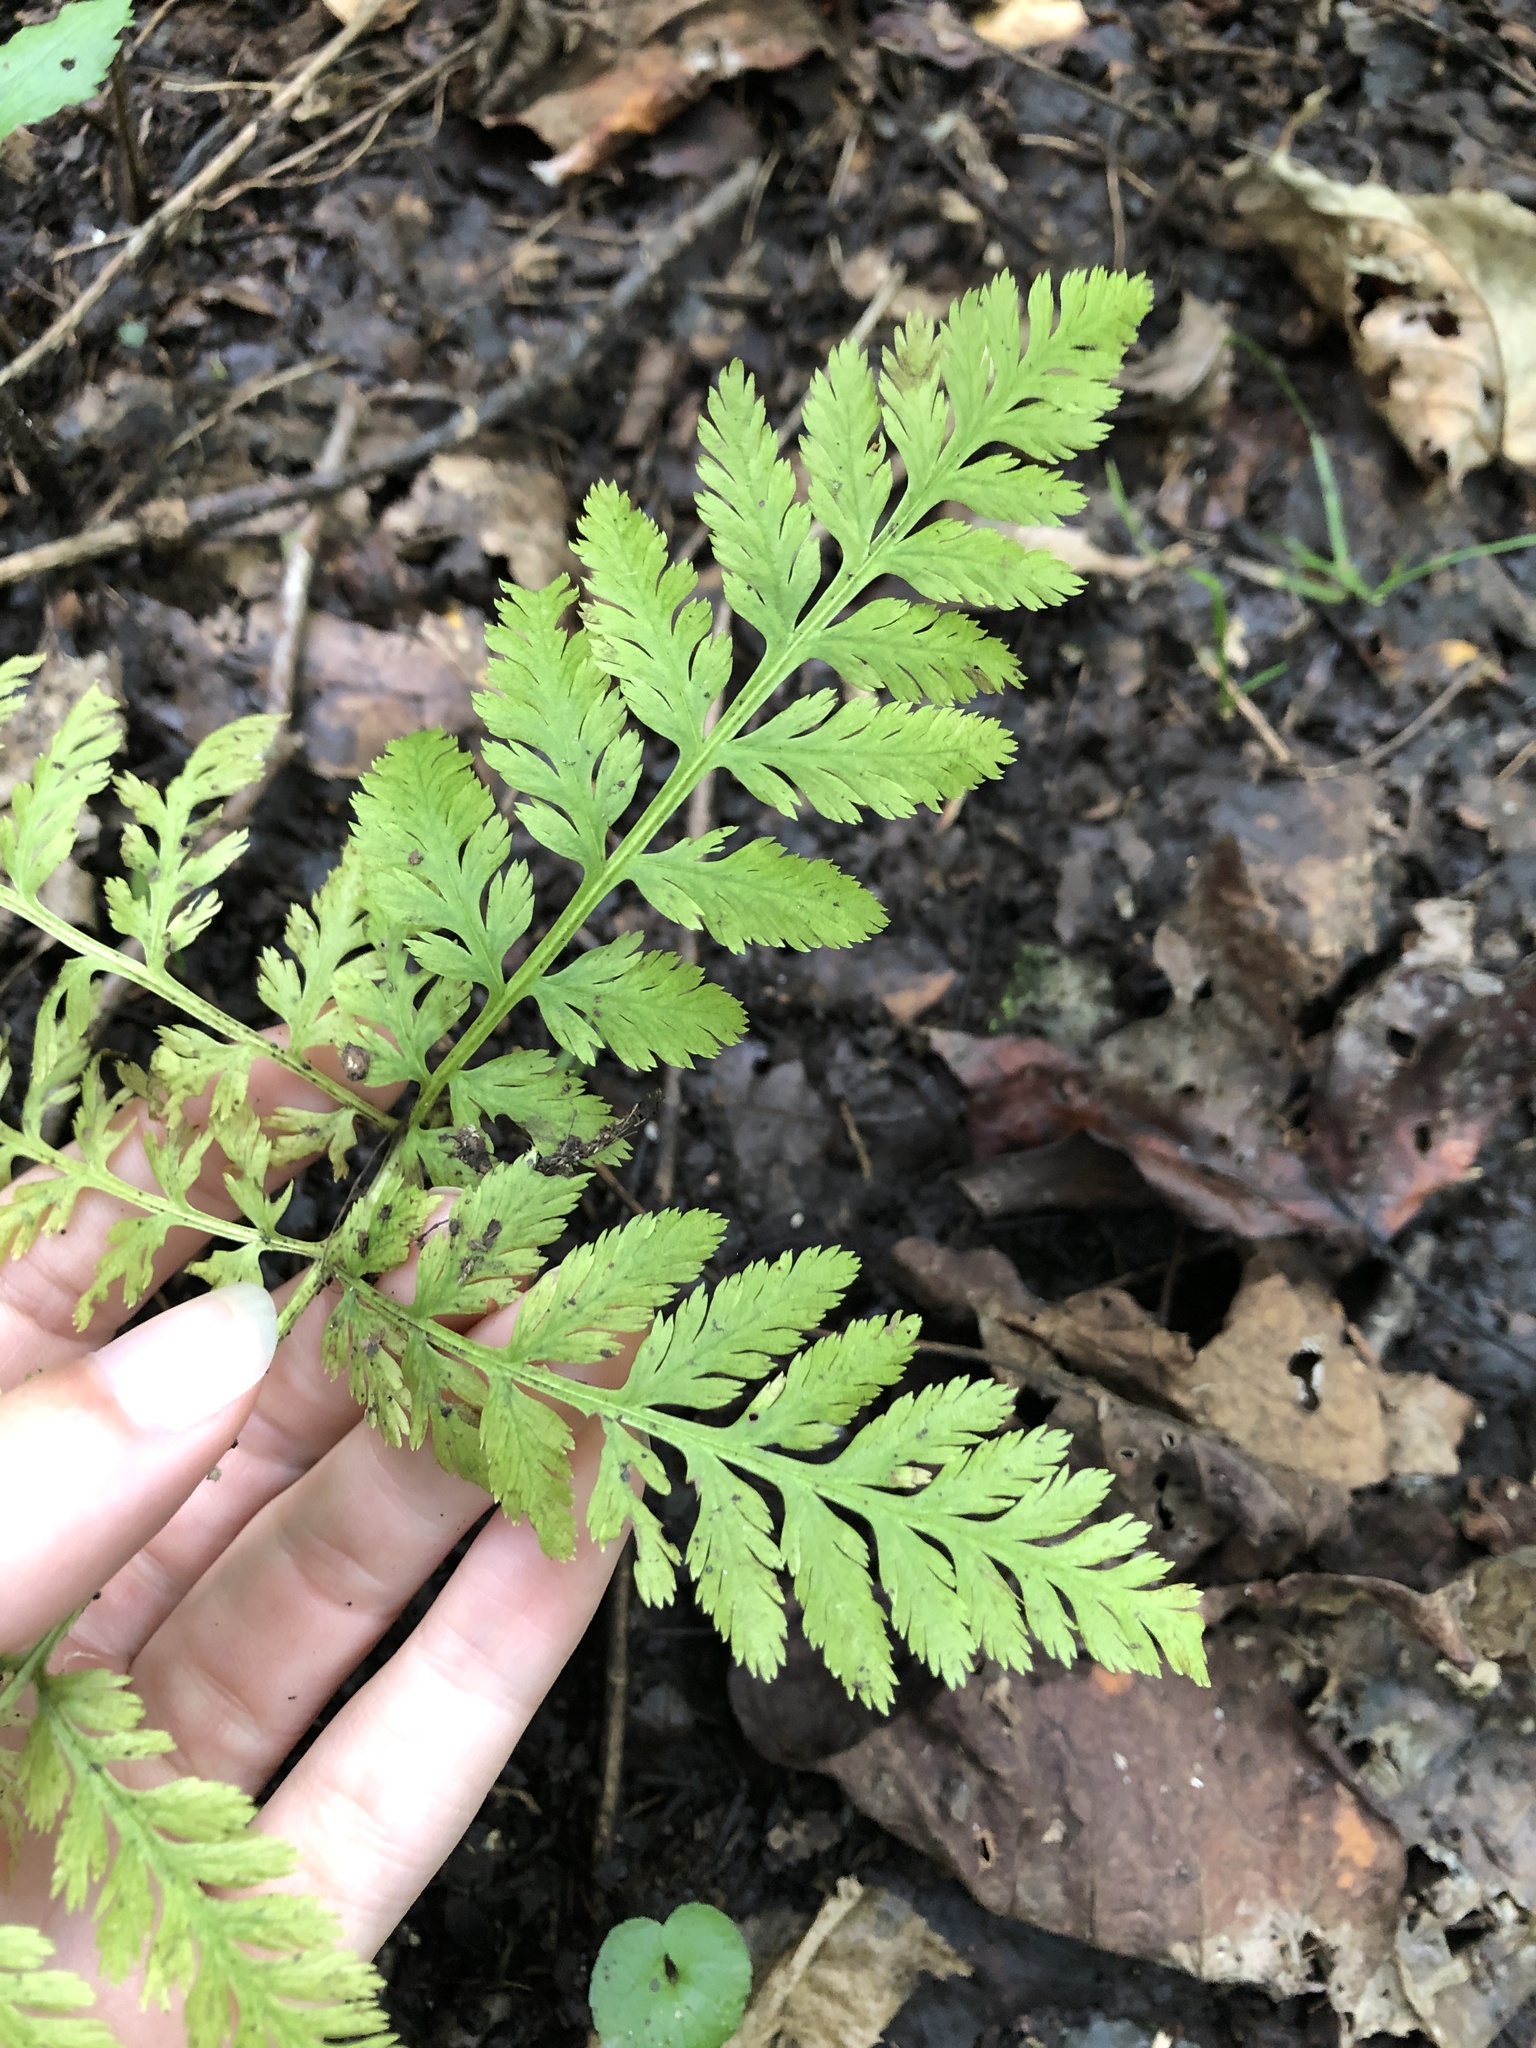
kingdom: Plantae
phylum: Tracheophyta
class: Polypodiopsida
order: Ophioglossales
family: Ophioglossaceae
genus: Botrypus
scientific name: Botrypus virginianus
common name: Common grapefern
